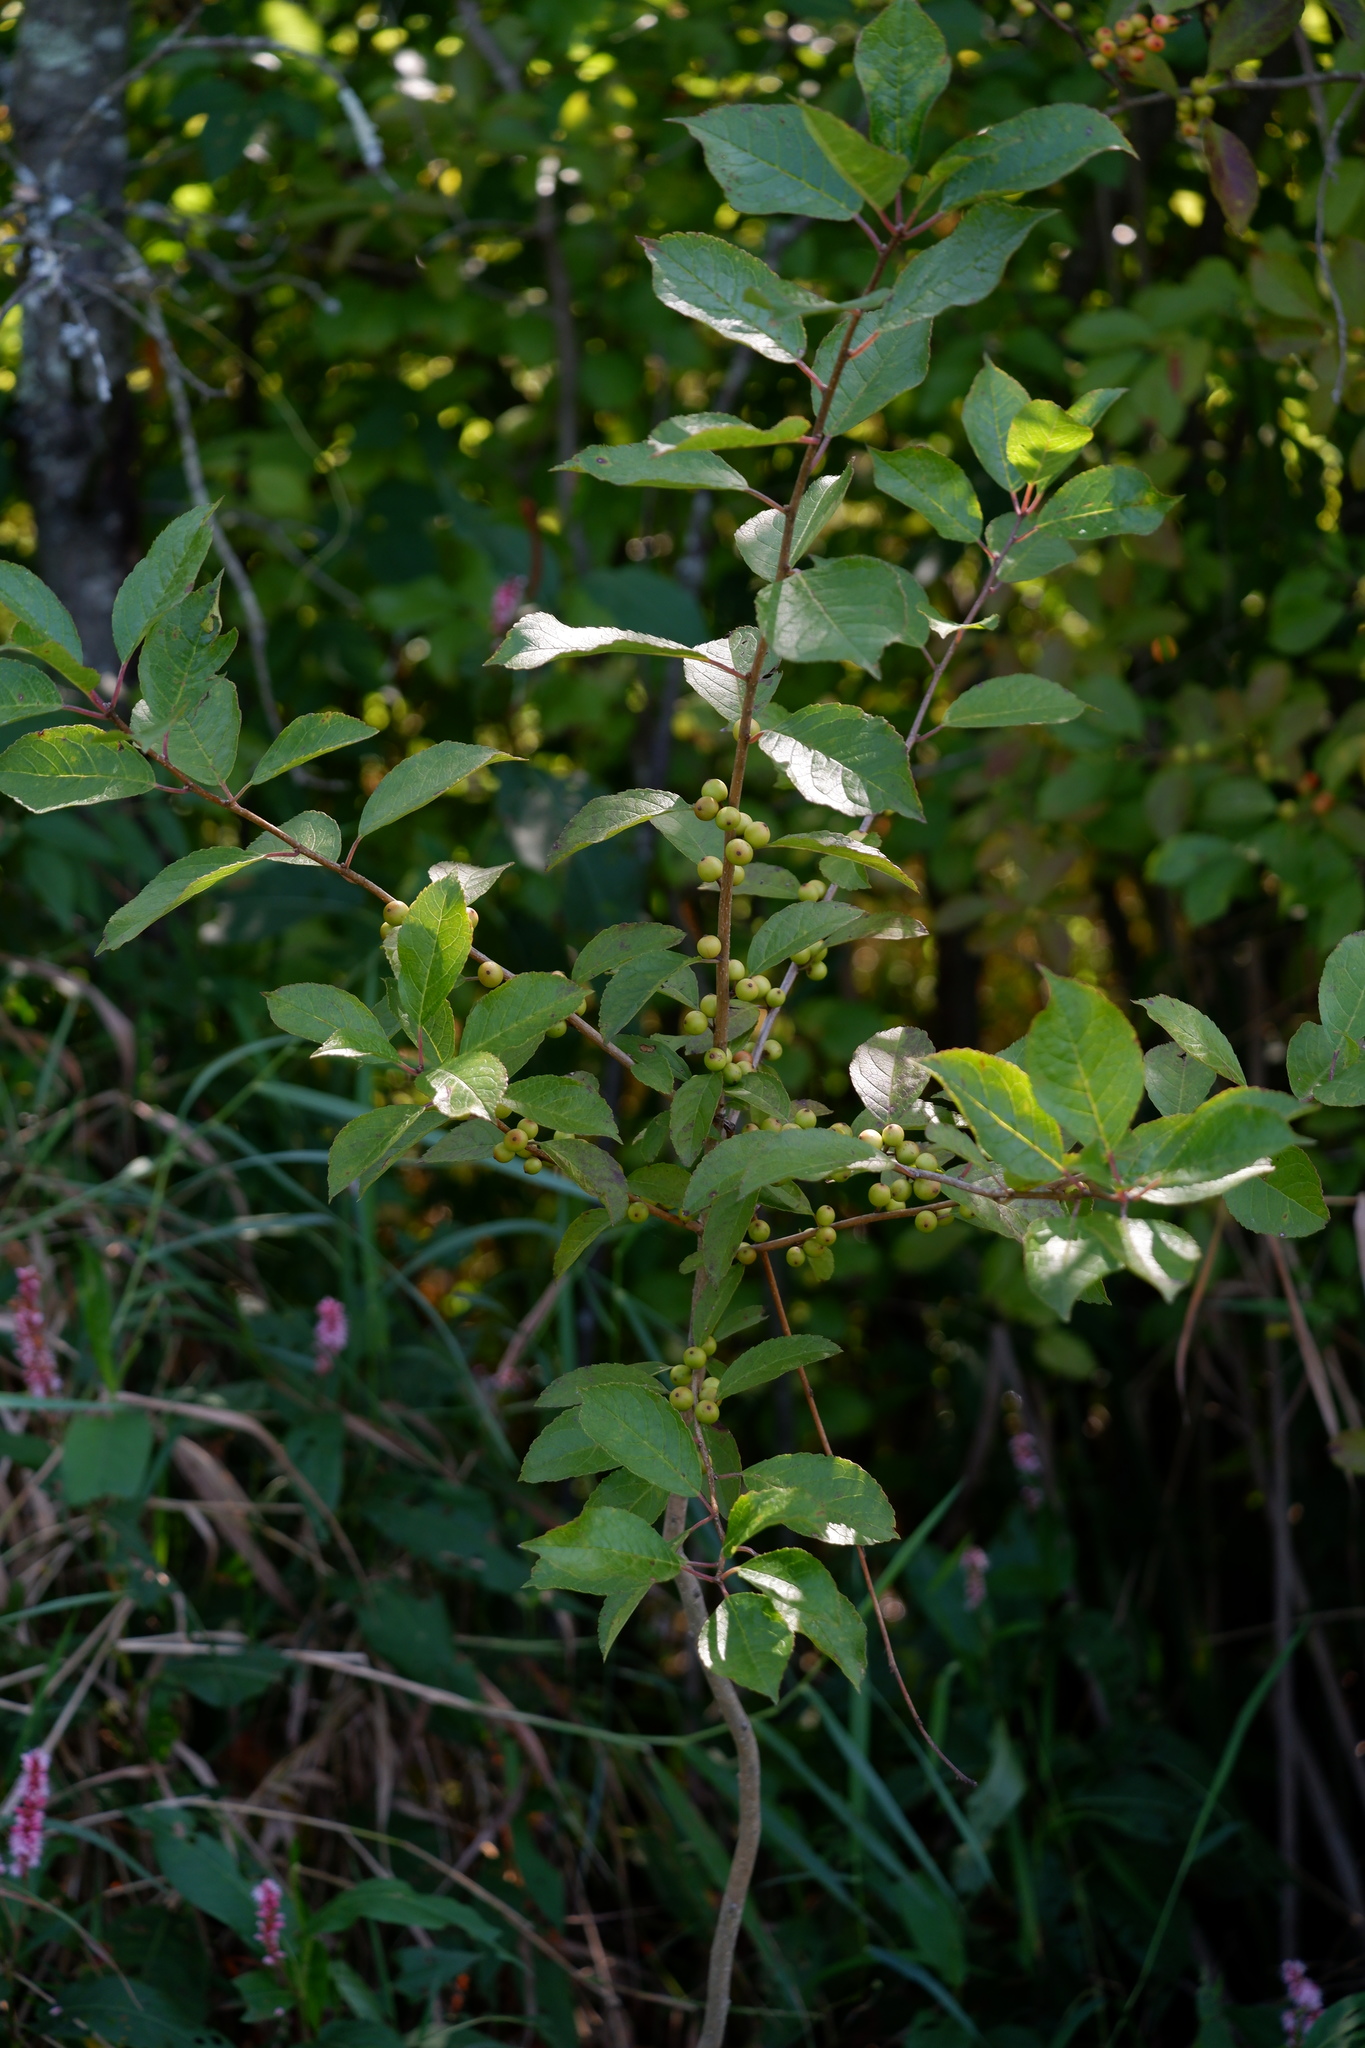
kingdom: Plantae
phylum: Tracheophyta
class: Magnoliopsida
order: Aquifoliales
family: Aquifoliaceae
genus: Ilex
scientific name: Ilex verticillata
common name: Virginia winterberry
